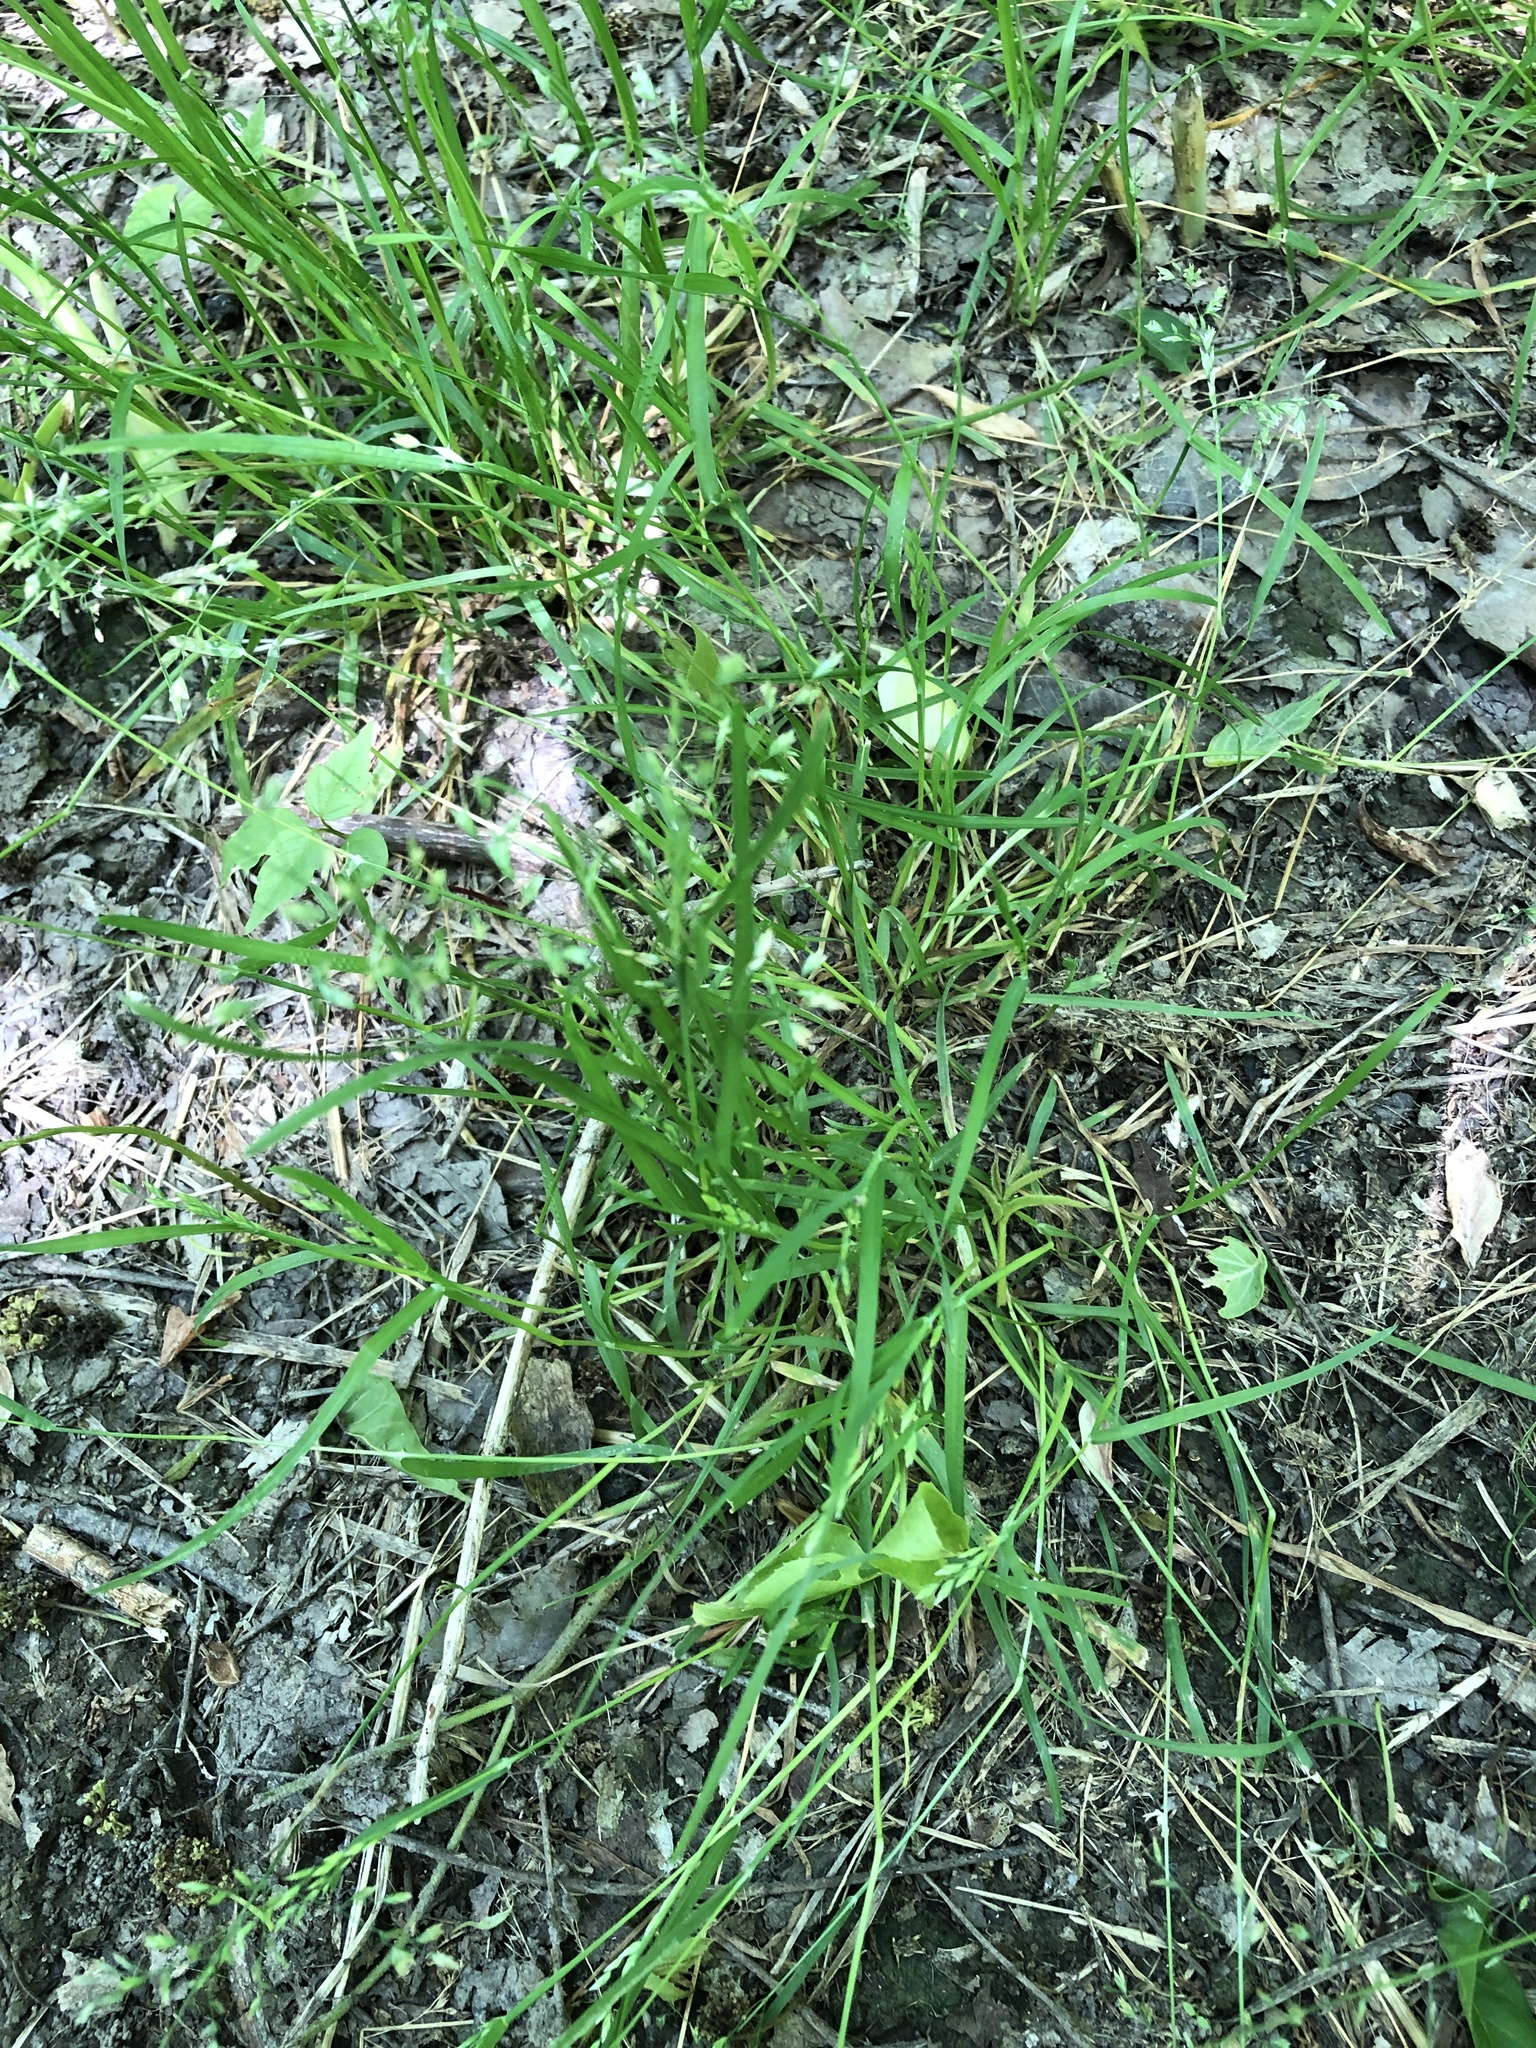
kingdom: Plantae
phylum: Tracheophyta
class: Liliopsida
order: Poales
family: Poaceae
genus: Poa
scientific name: Poa annua
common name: Annual bluegrass
